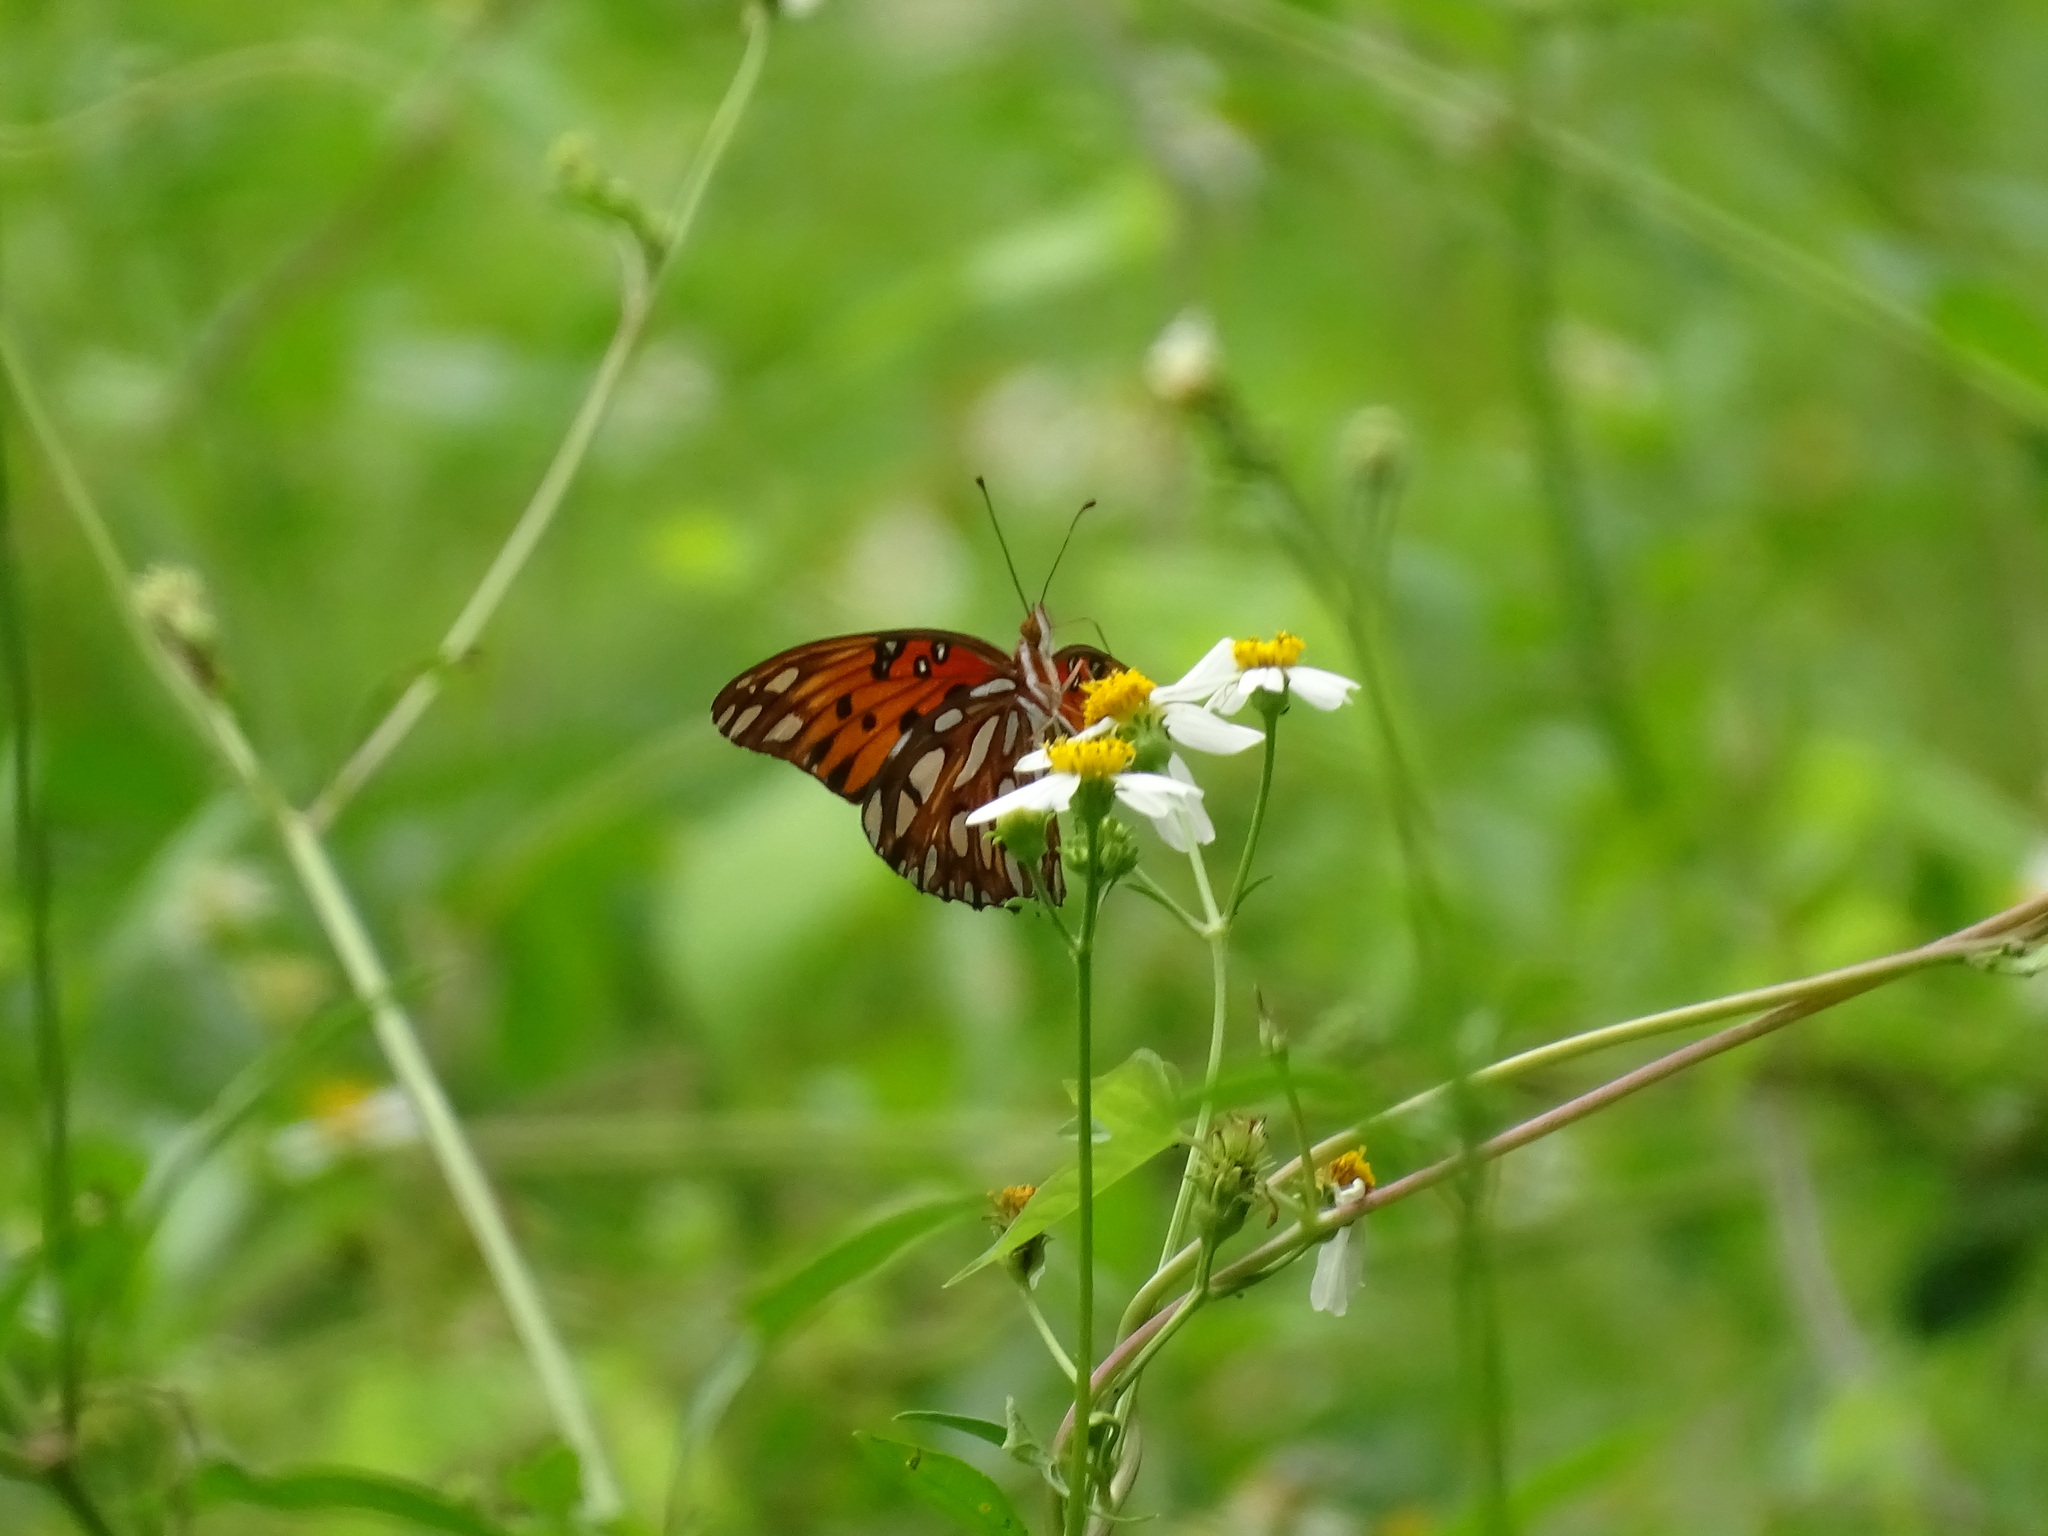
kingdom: Animalia
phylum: Arthropoda
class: Insecta
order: Lepidoptera
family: Nymphalidae
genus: Dione
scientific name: Dione vanillae
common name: Gulf fritillary
